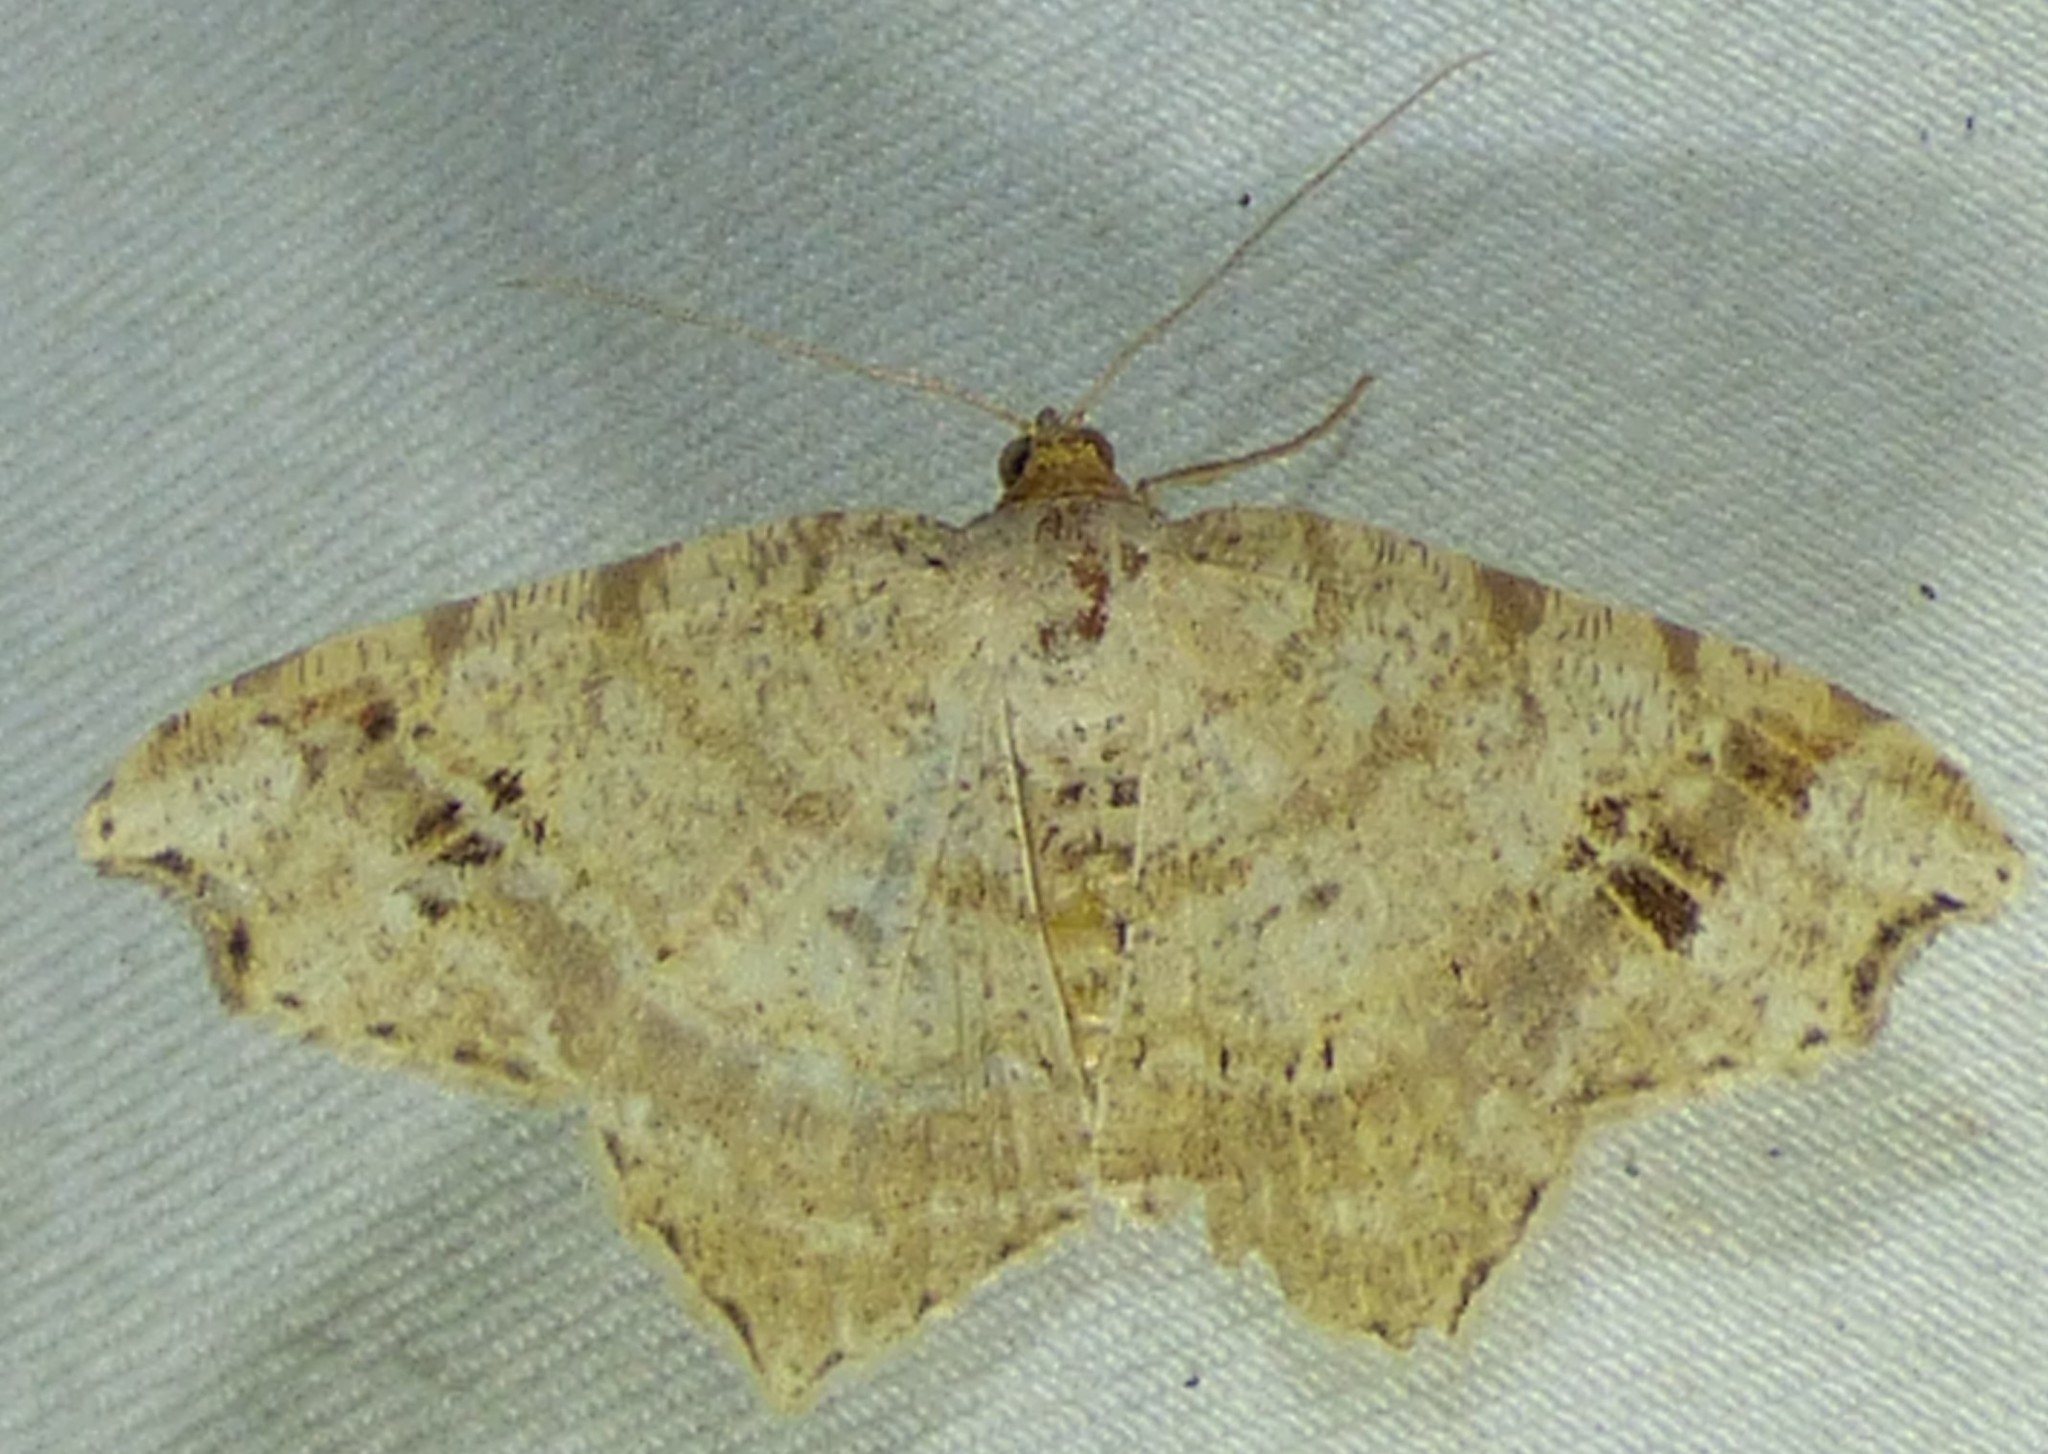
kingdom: Animalia
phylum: Arthropoda
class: Insecta
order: Lepidoptera
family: Geometridae
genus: Macaria
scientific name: Macaria aemulataria
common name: Common angle
